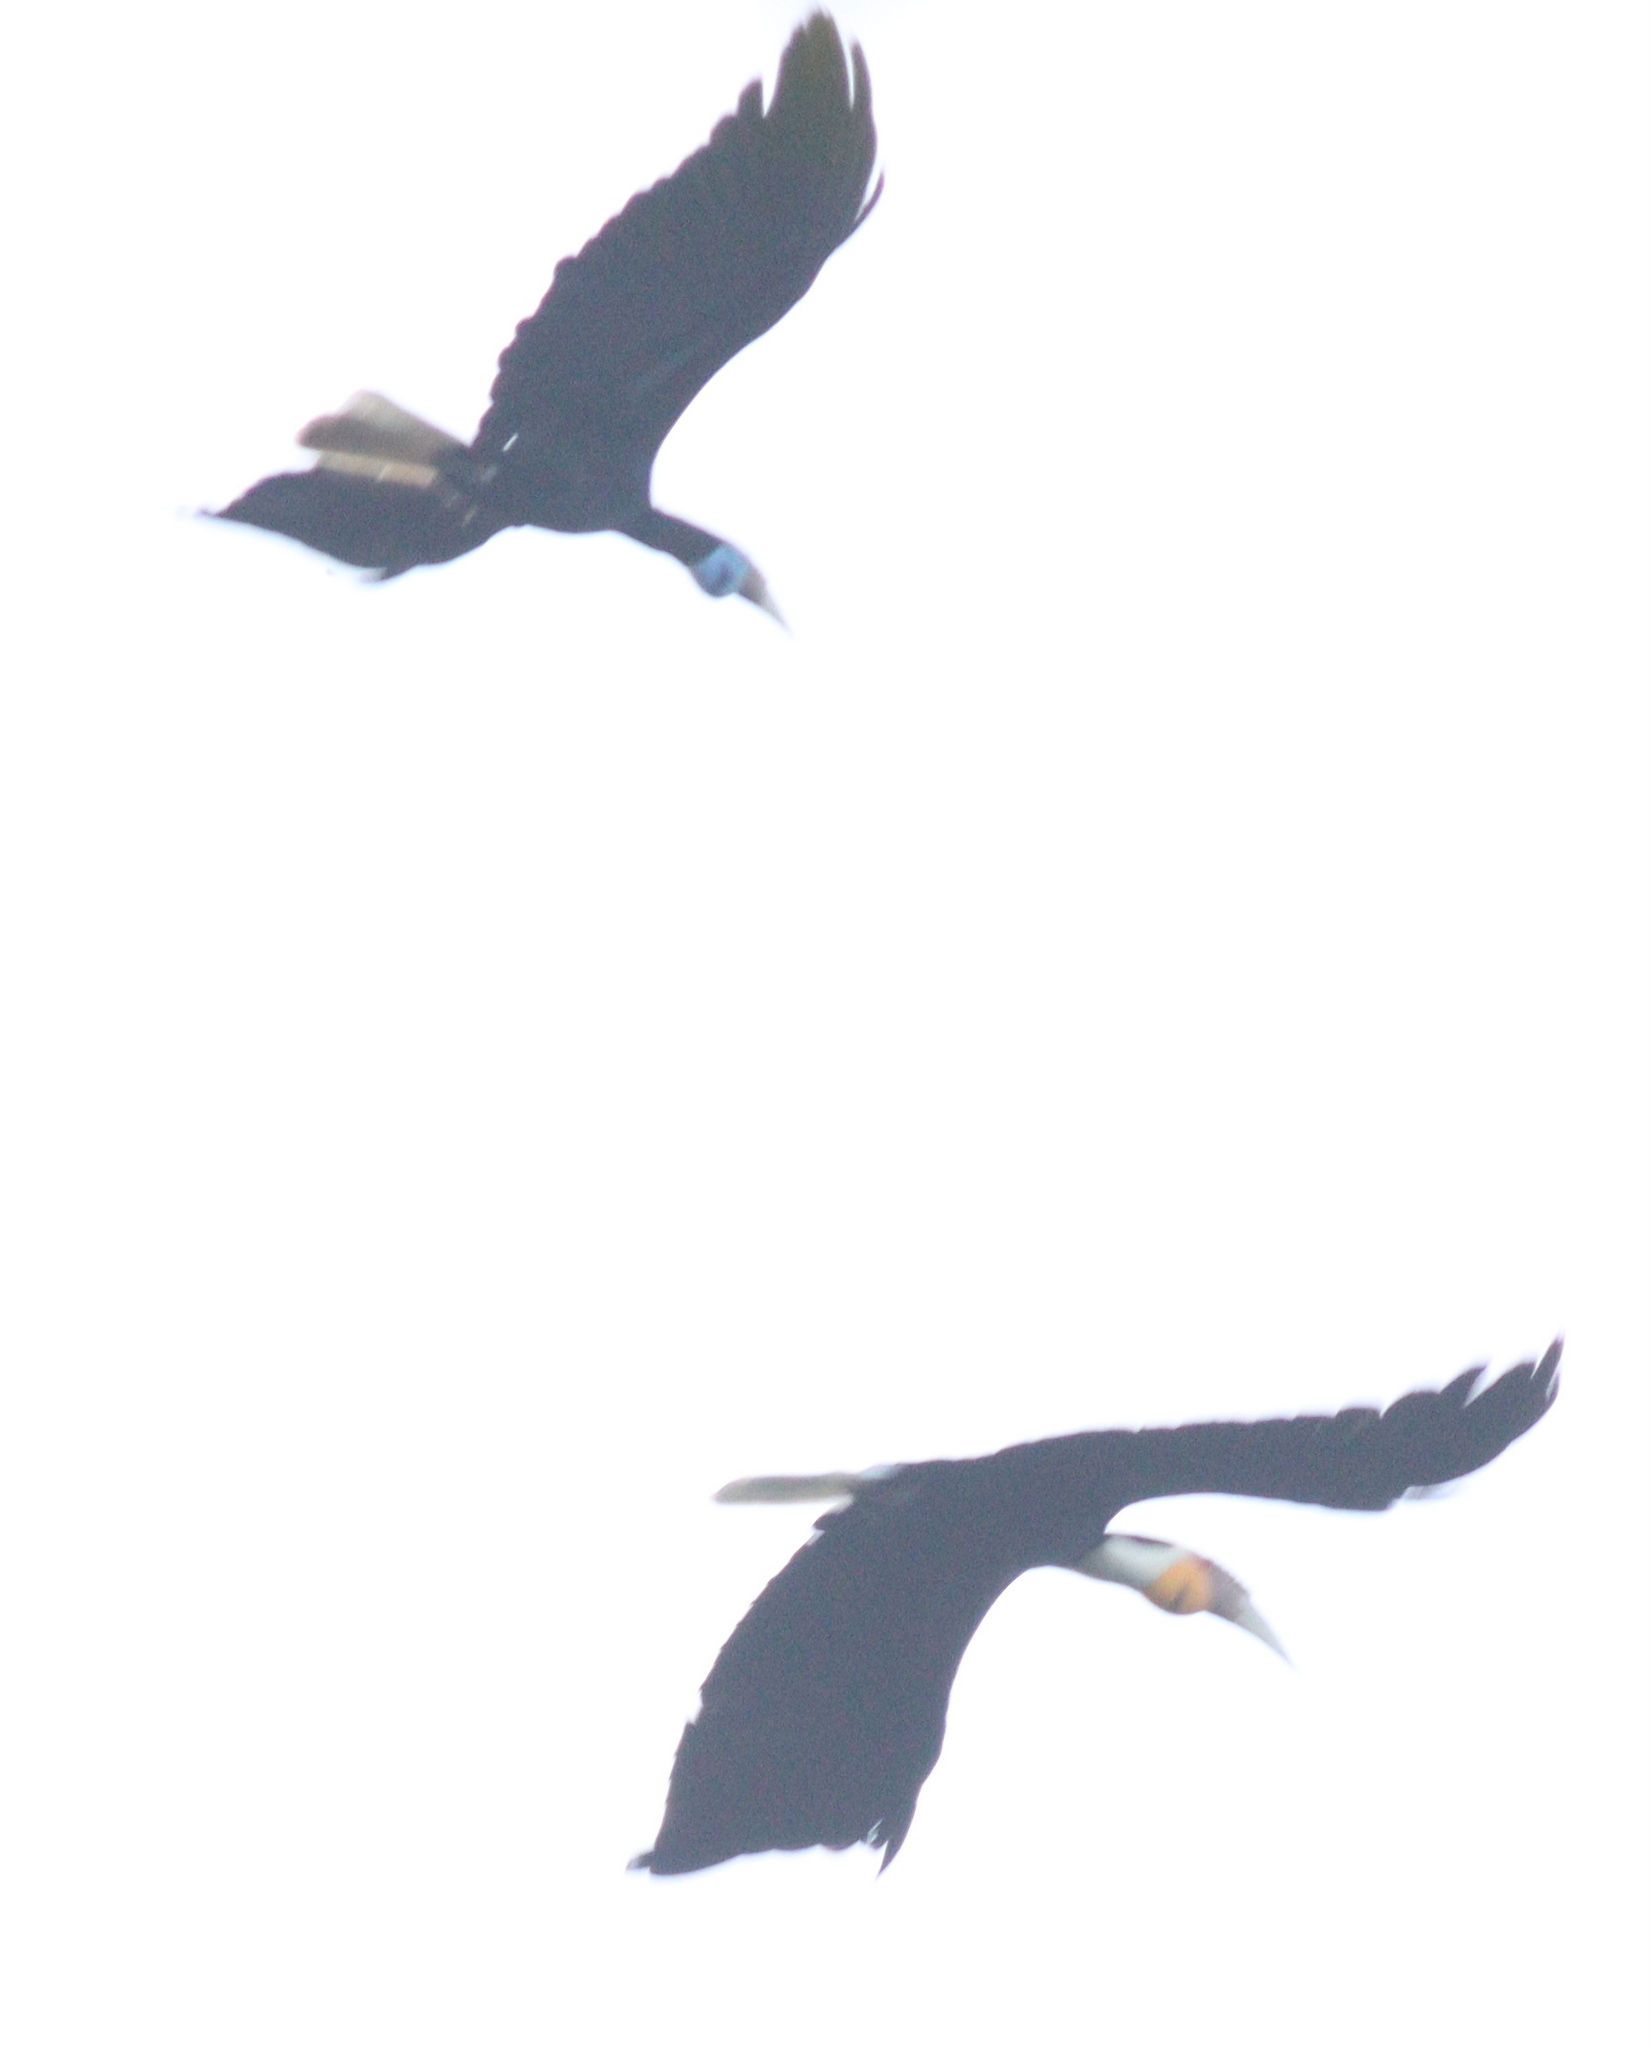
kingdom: Animalia
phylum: Chordata
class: Aves
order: Bucerotiformes
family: Bucerotidae
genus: Rhyticeros
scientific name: Rhyticeros undulatus
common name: Wreathed hornbill
